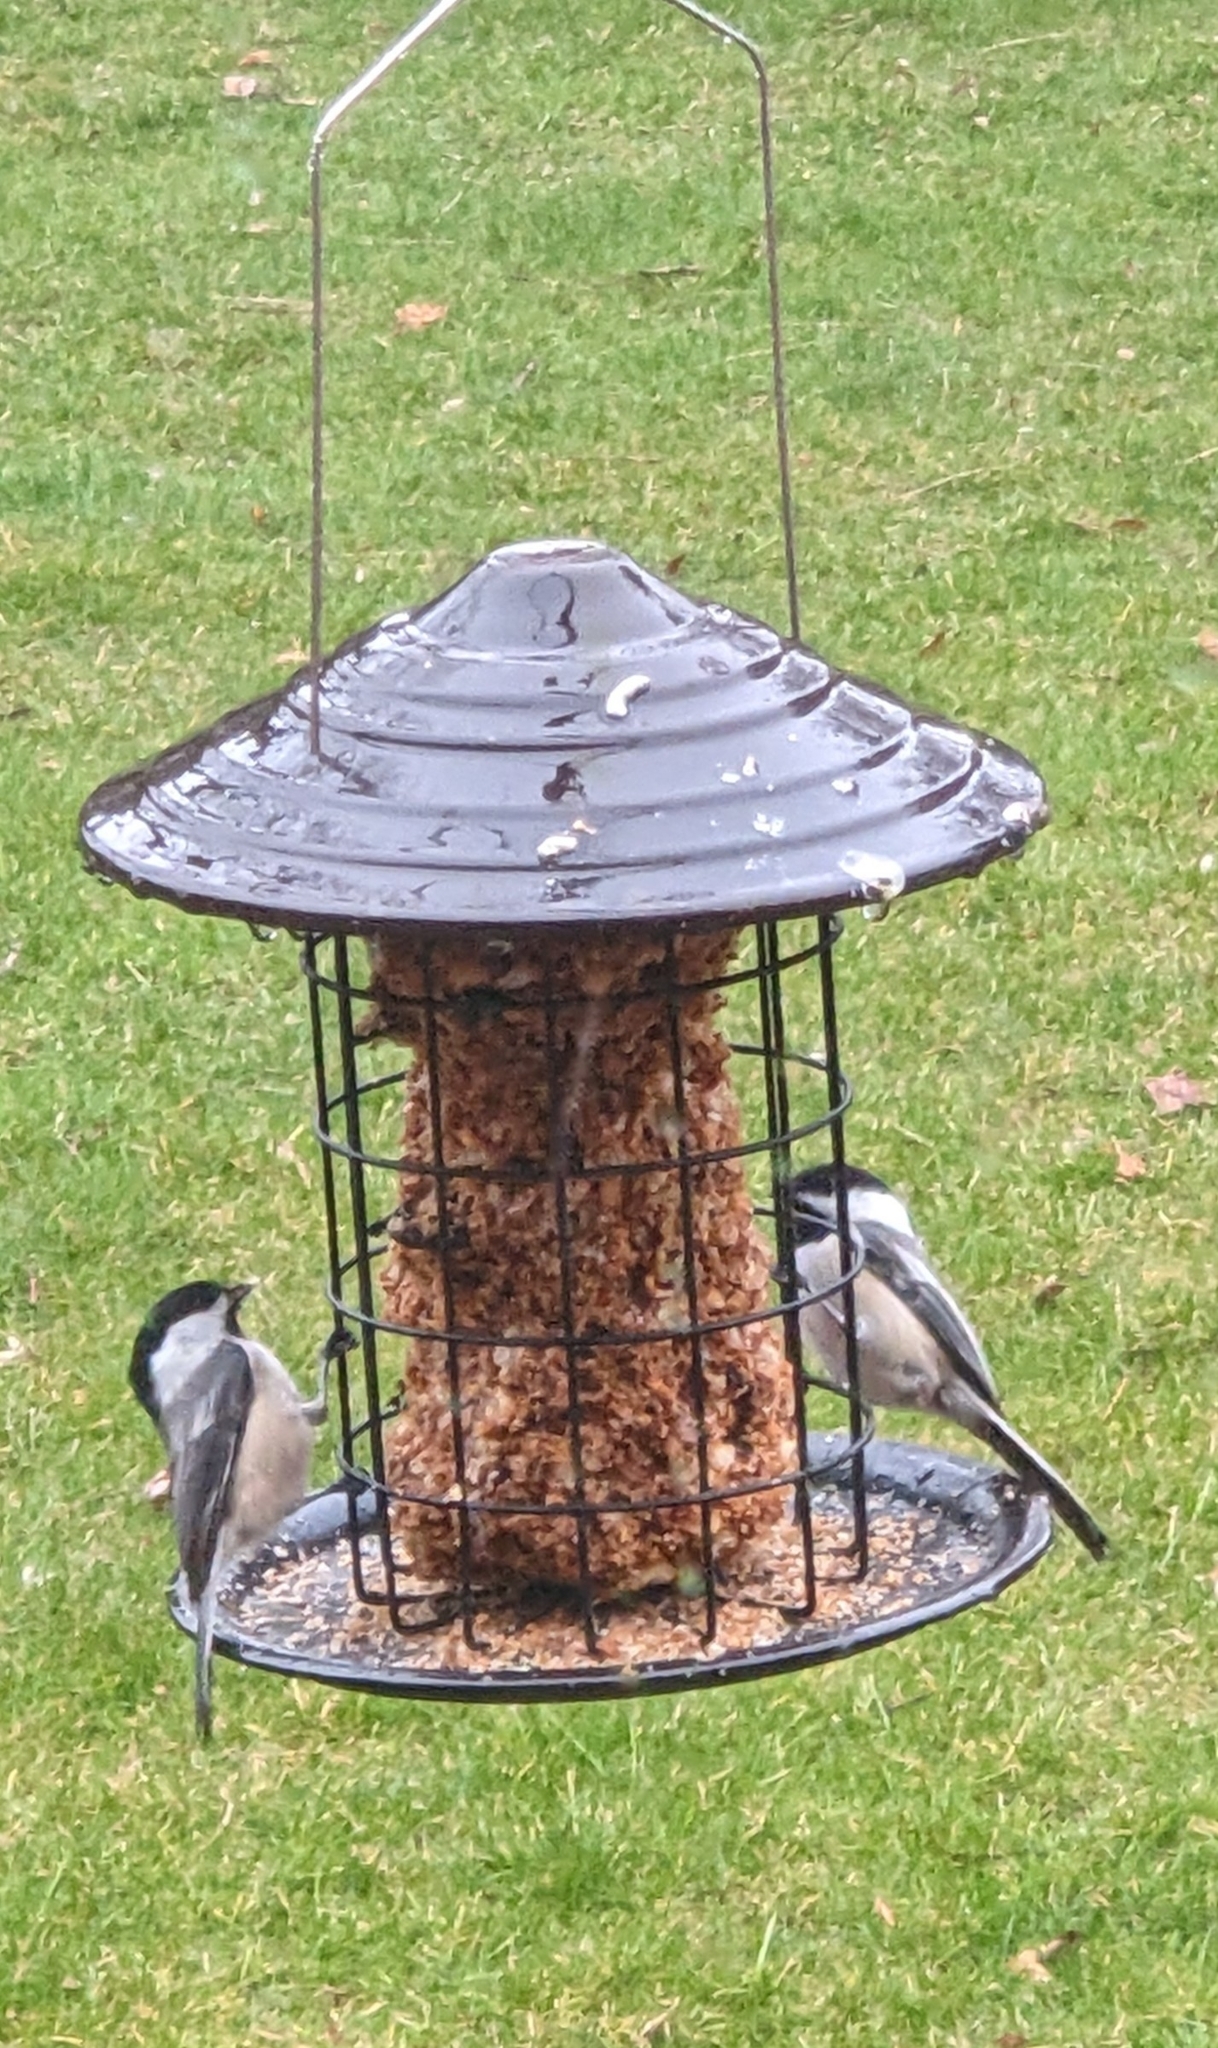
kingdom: Animalia
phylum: Chordata
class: Aves
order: Passeriformes
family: Paridae
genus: Poecile
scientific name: Poecile atricapillus
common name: Black-capped chickadee
